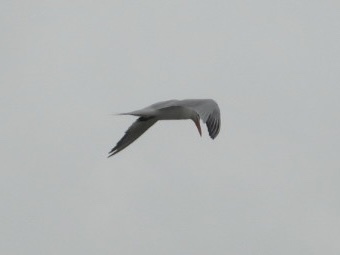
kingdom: Animalia
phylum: Chordata
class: Aves
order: Charadriiformes
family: Laridae
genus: Thalasseus
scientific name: Thalasseus maximus
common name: Royal tern
